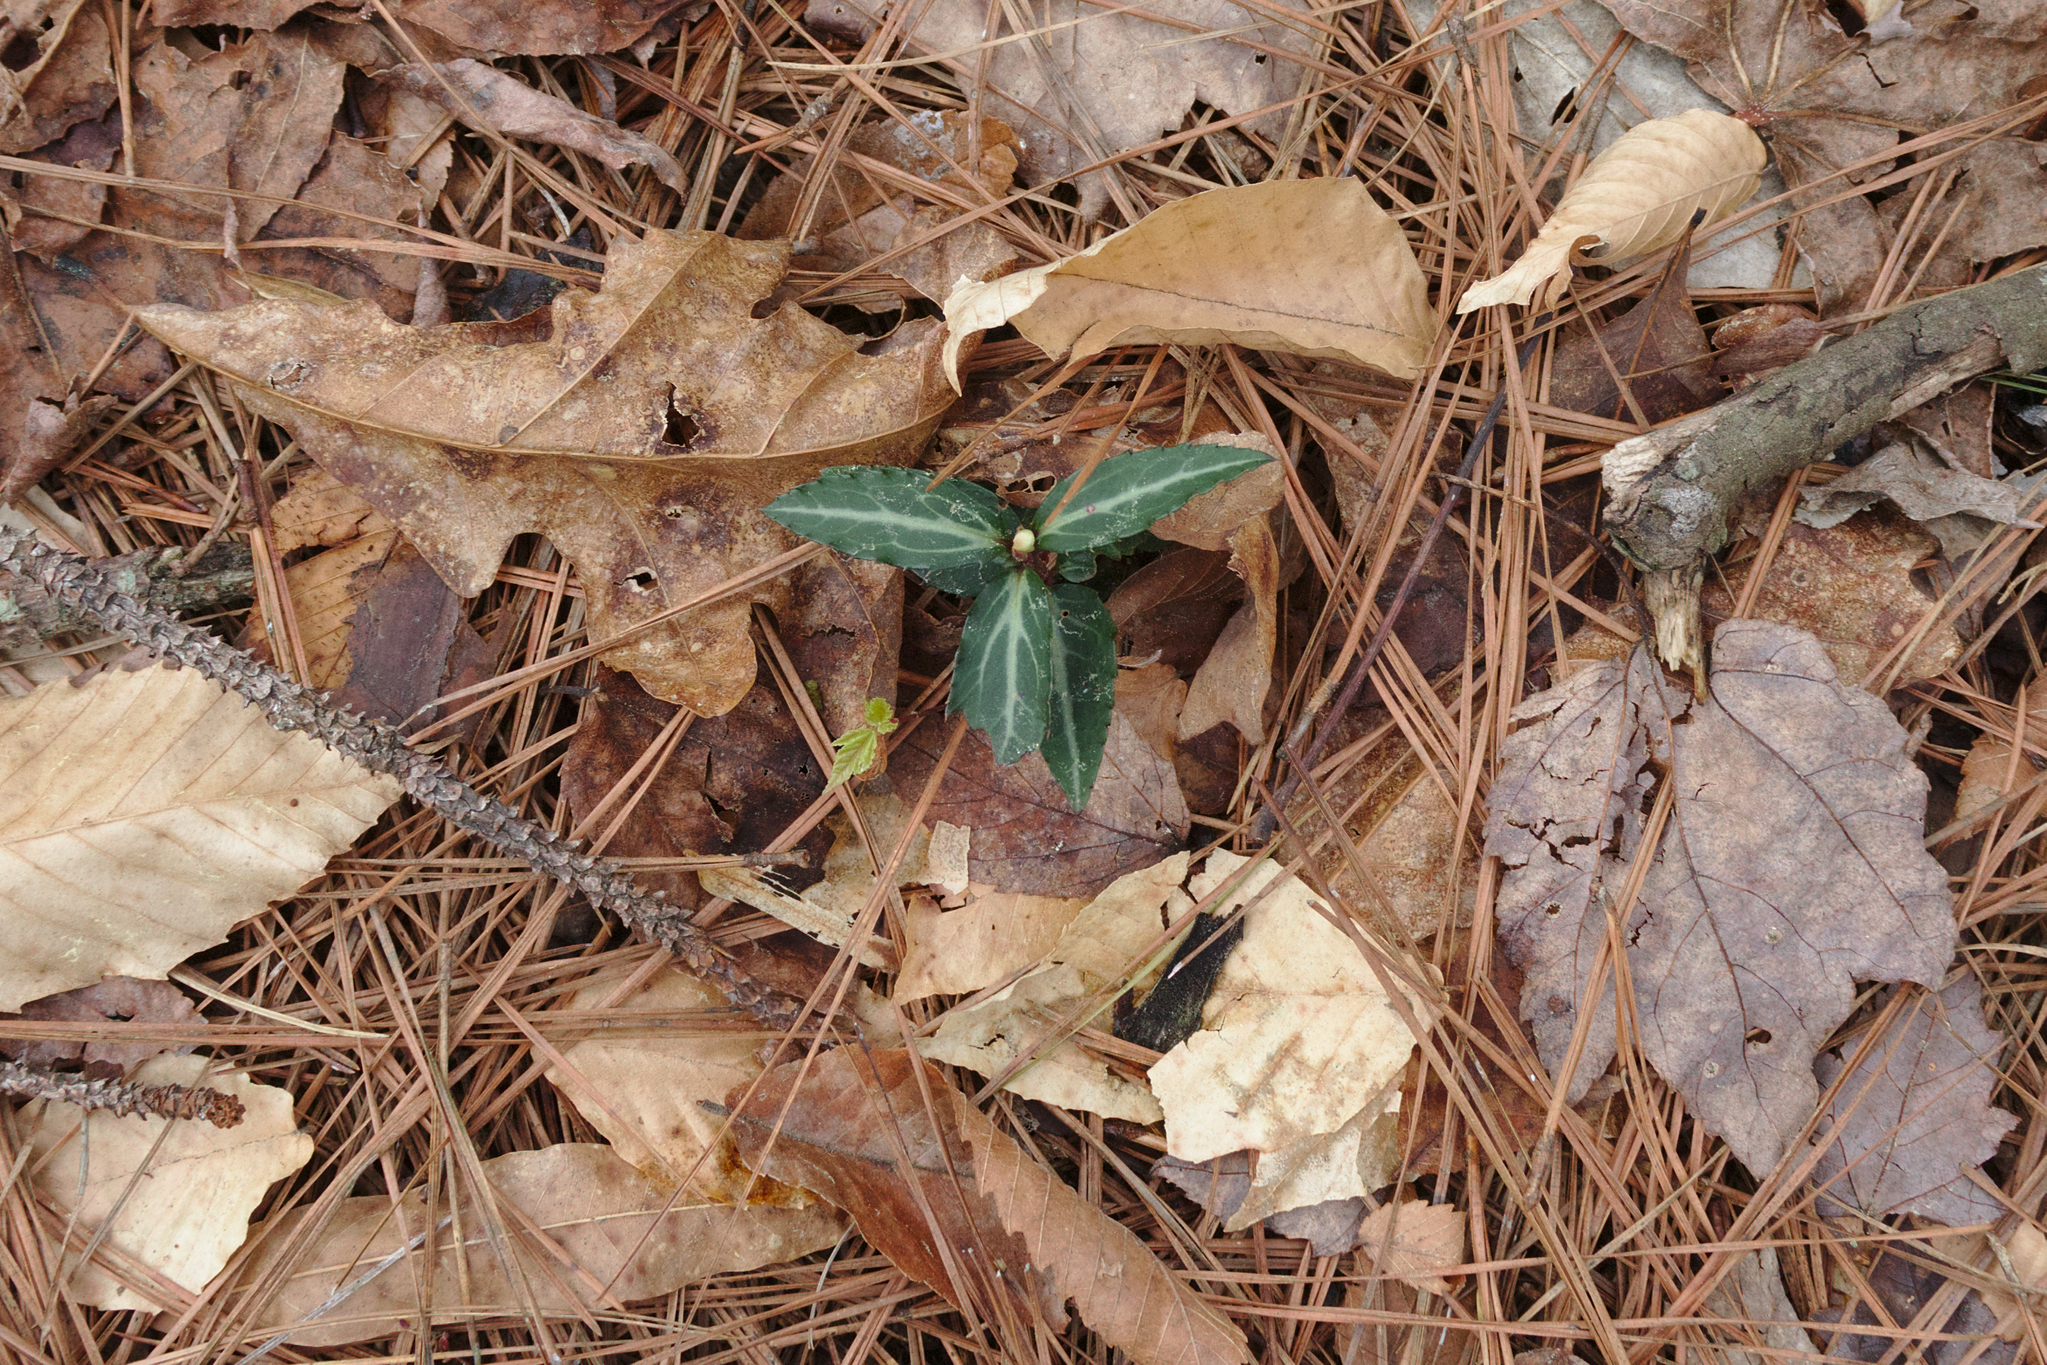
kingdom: Plantae
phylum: Tracheophyta
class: Magnoliopsida
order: Ericales
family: Ericaceae
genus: Chimaphila
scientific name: Chimaphila maculata
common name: Spotted pipsissewa
